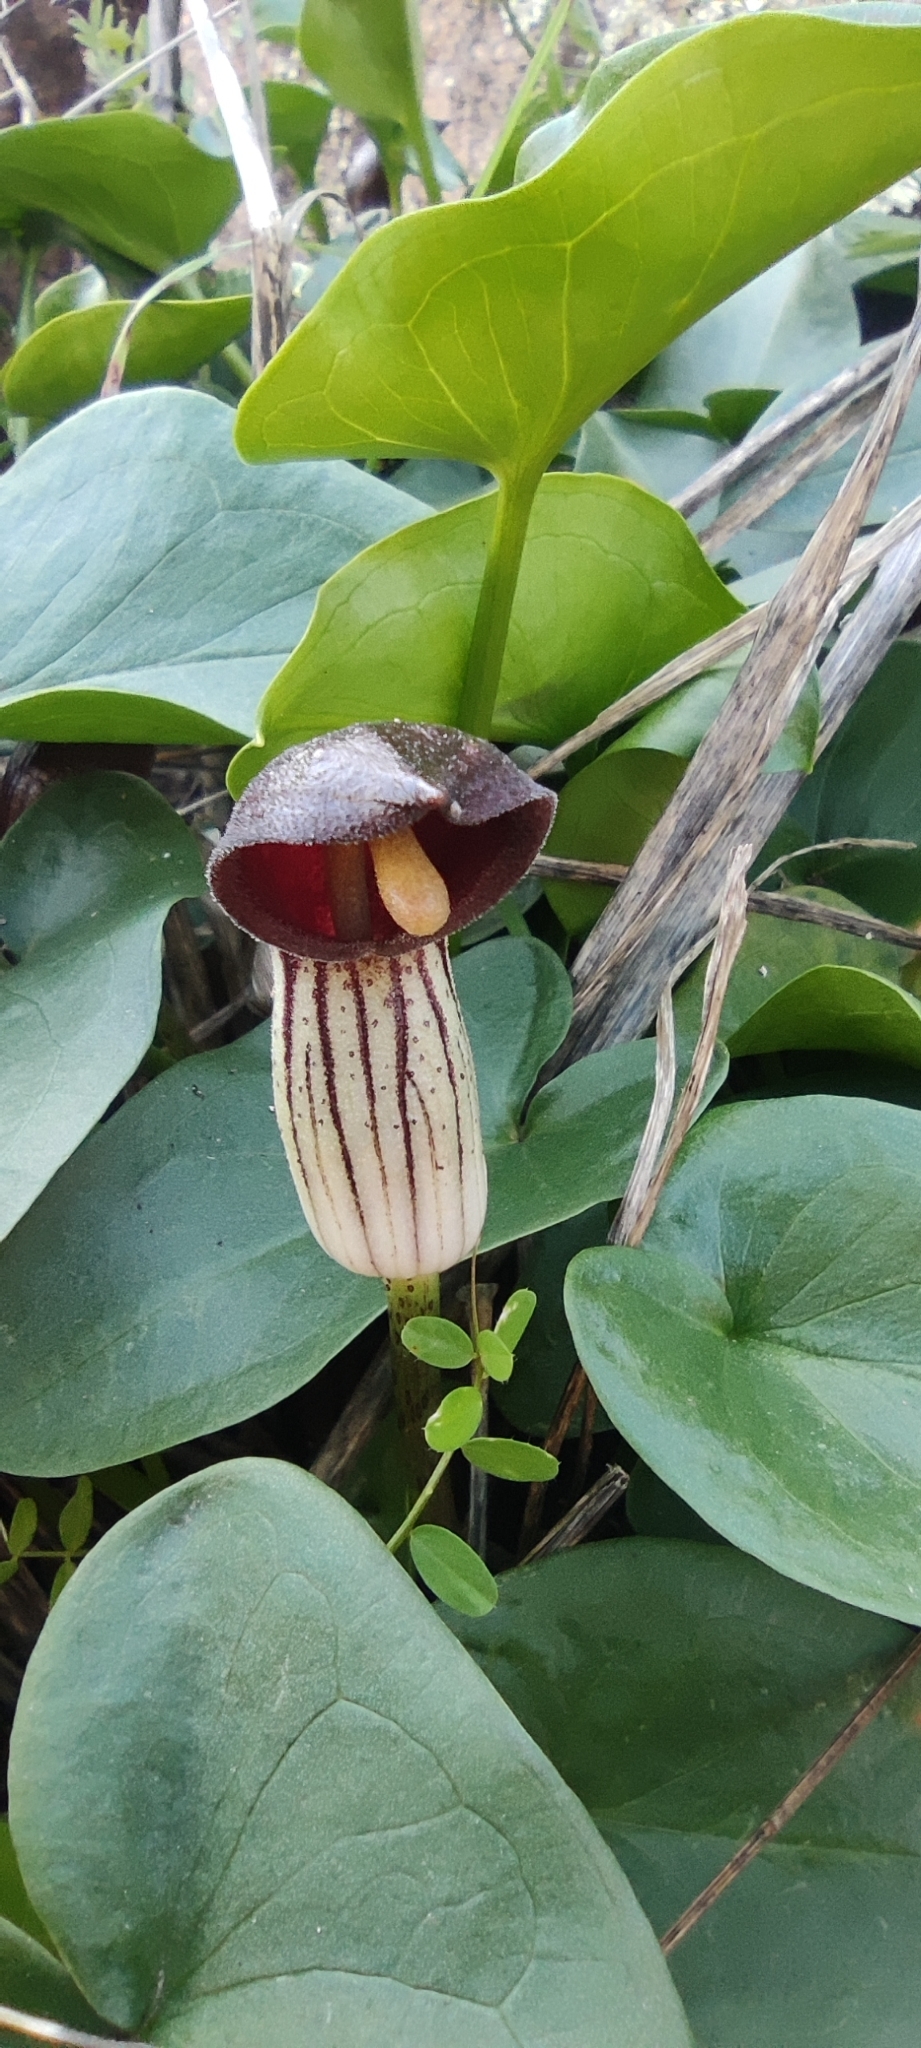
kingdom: Plantae
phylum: Tracheophyta
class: Liliopsida
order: Alismatales
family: Araceae
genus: Arisarum
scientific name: Arisarum simorrhinum
